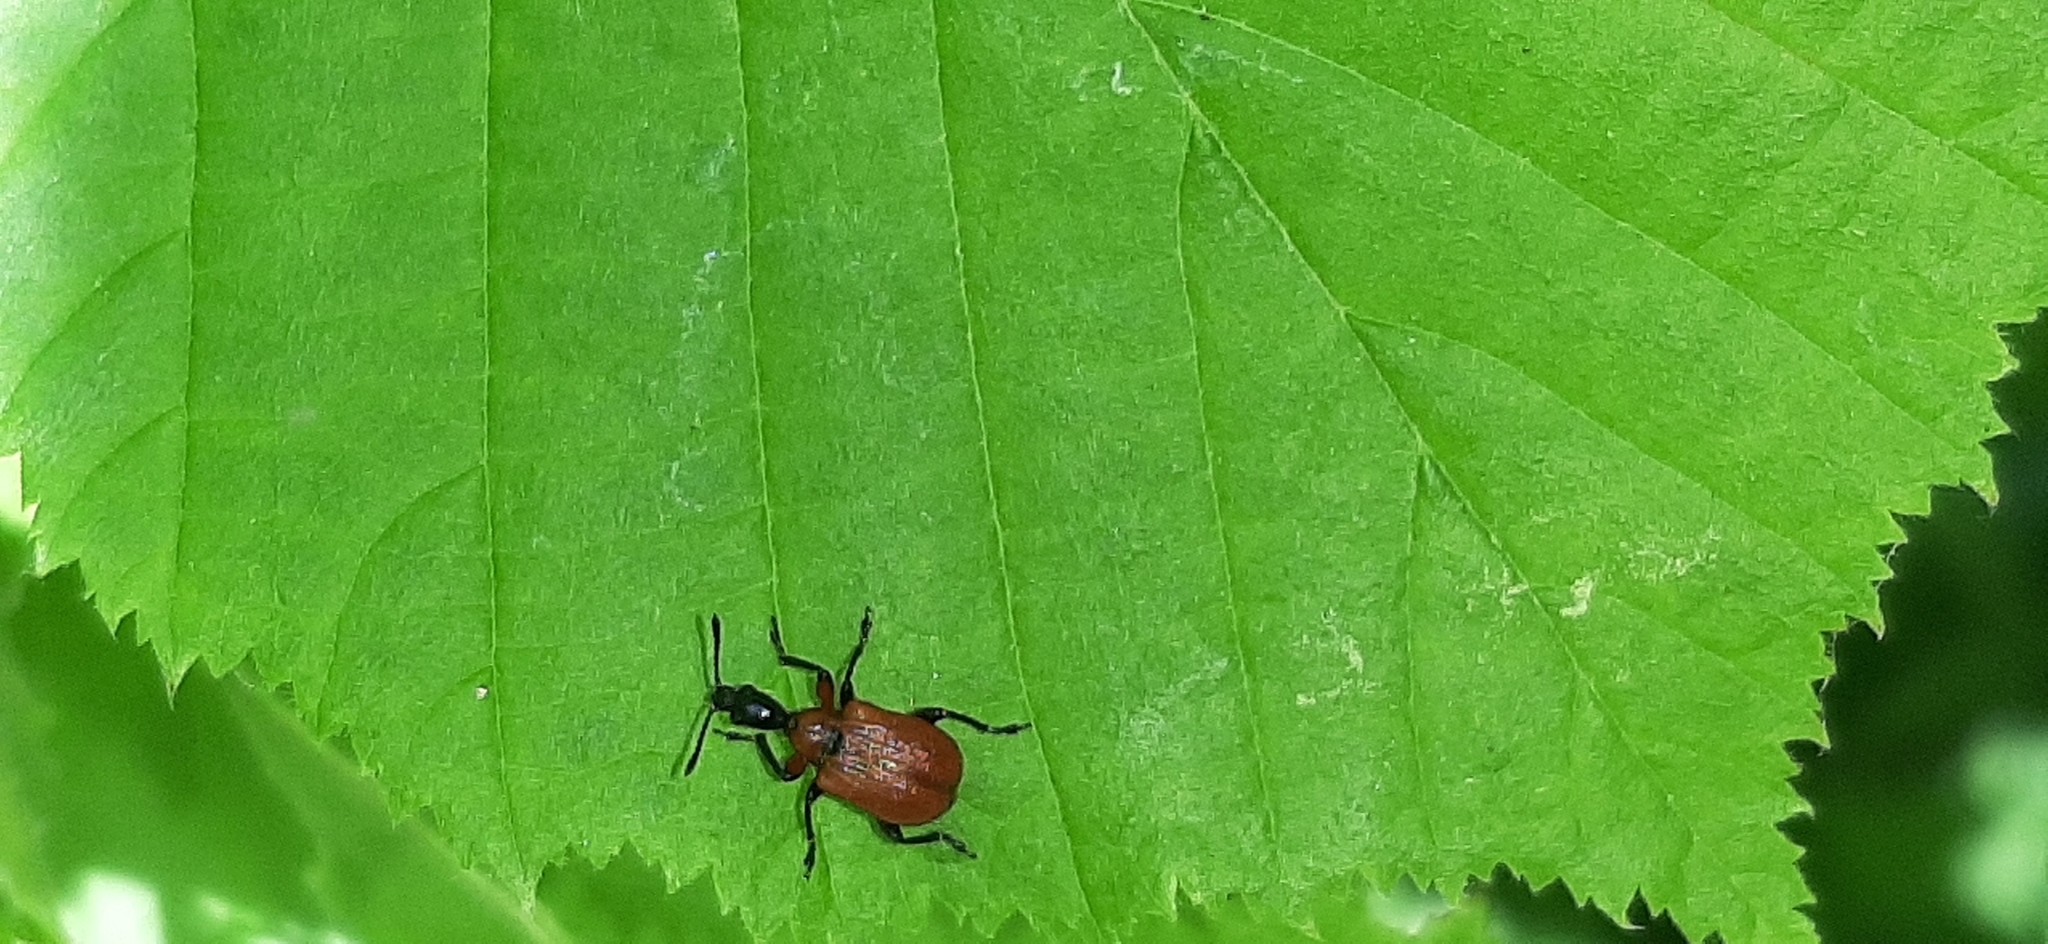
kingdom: Animalia
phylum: Arthropoda
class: Insecta
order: Coleoptera
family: Attelabidae
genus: Apoderus
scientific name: Apoderus coryli
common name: Hazel leaf roller
